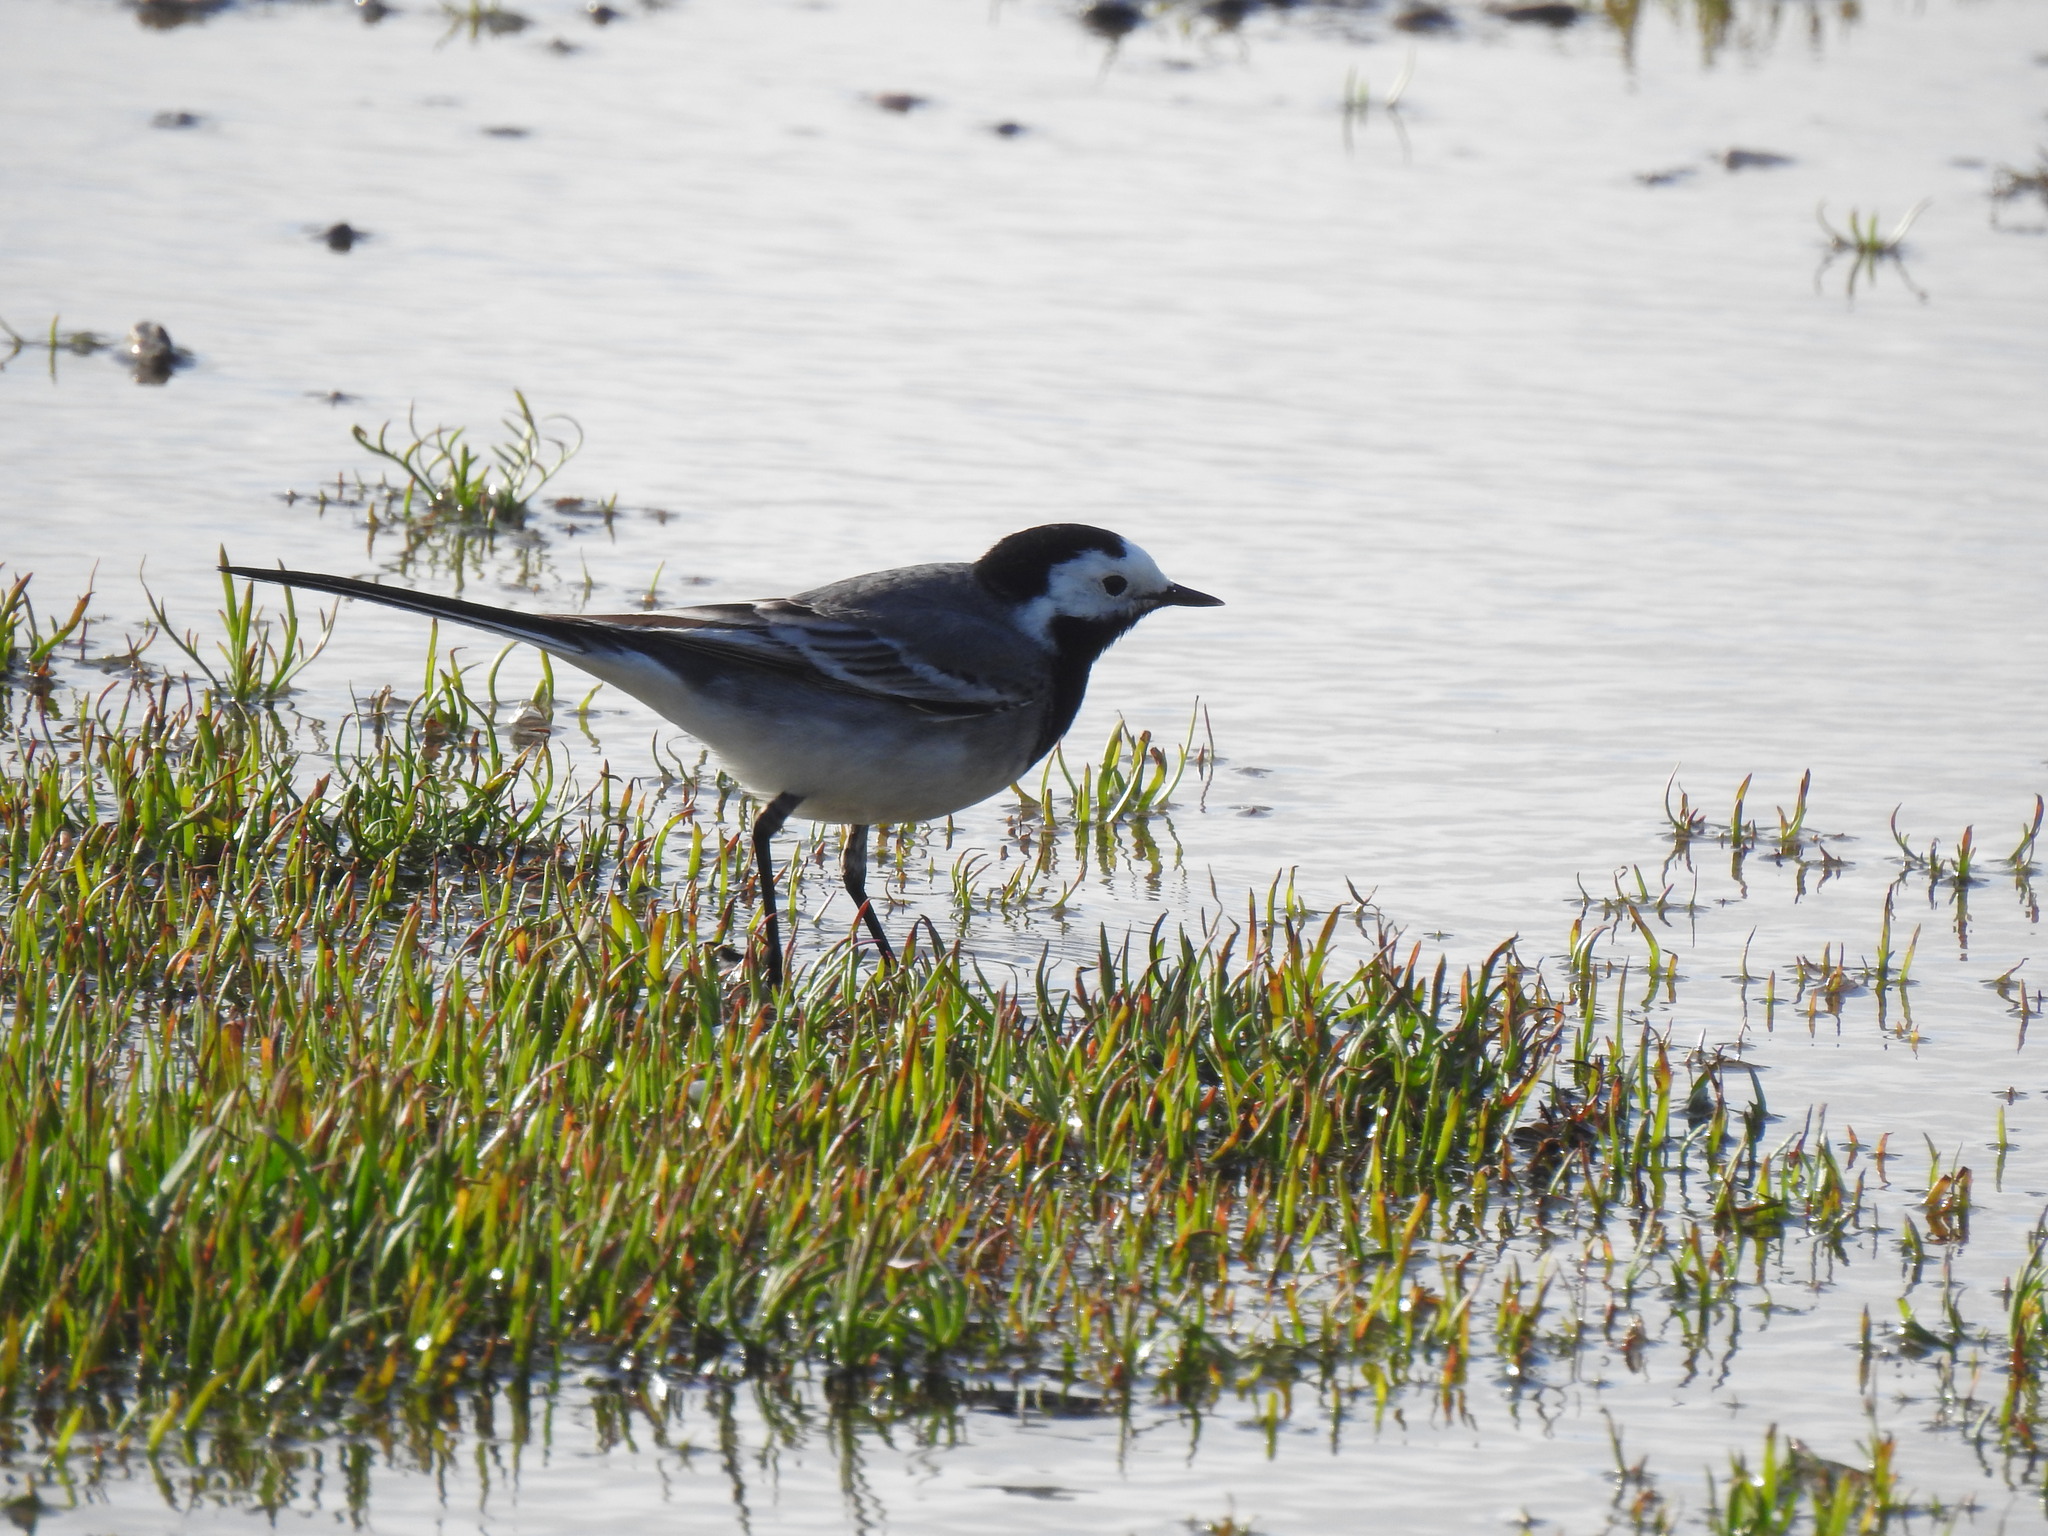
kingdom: Animalia
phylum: Chordata
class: Aves
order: Passeriformes
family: Motacillidae
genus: Motacilla
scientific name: Motacilla alba
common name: White wagtail
